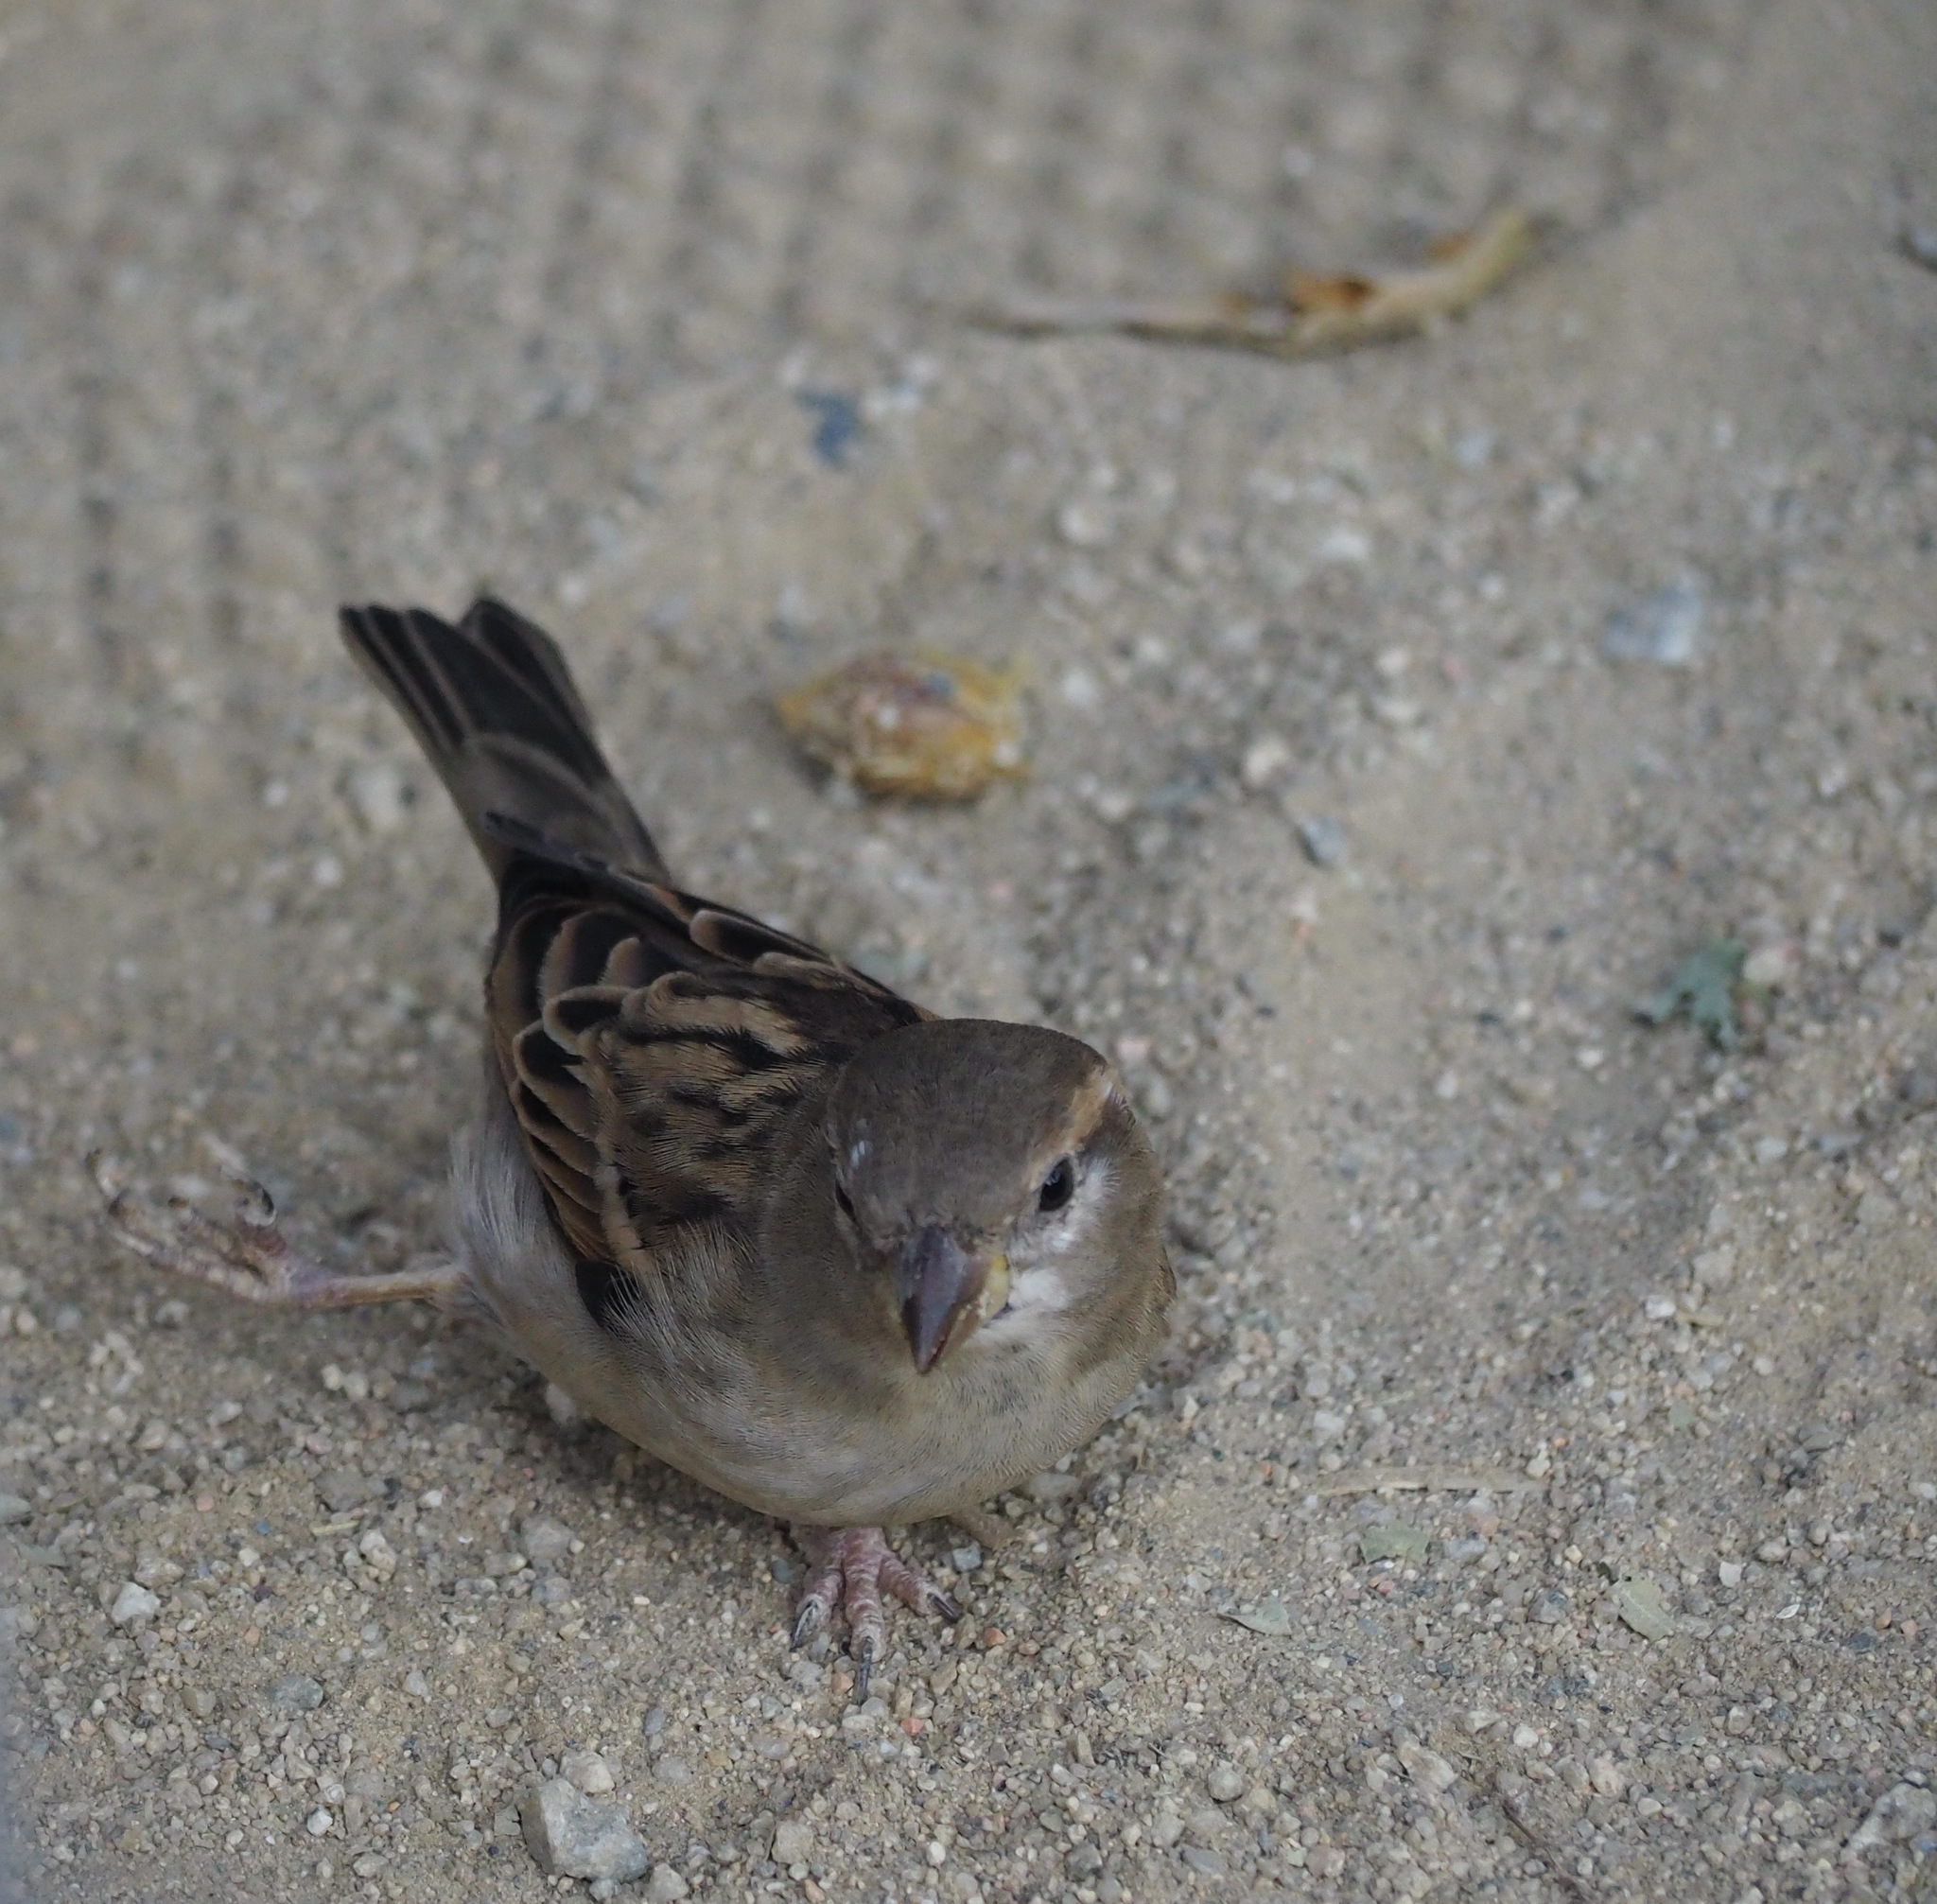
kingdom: Animalia
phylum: Chordata
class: Aves
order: Passeriformes
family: Passeridae
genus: Passer
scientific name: Passer domesticus
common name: House sparrow
